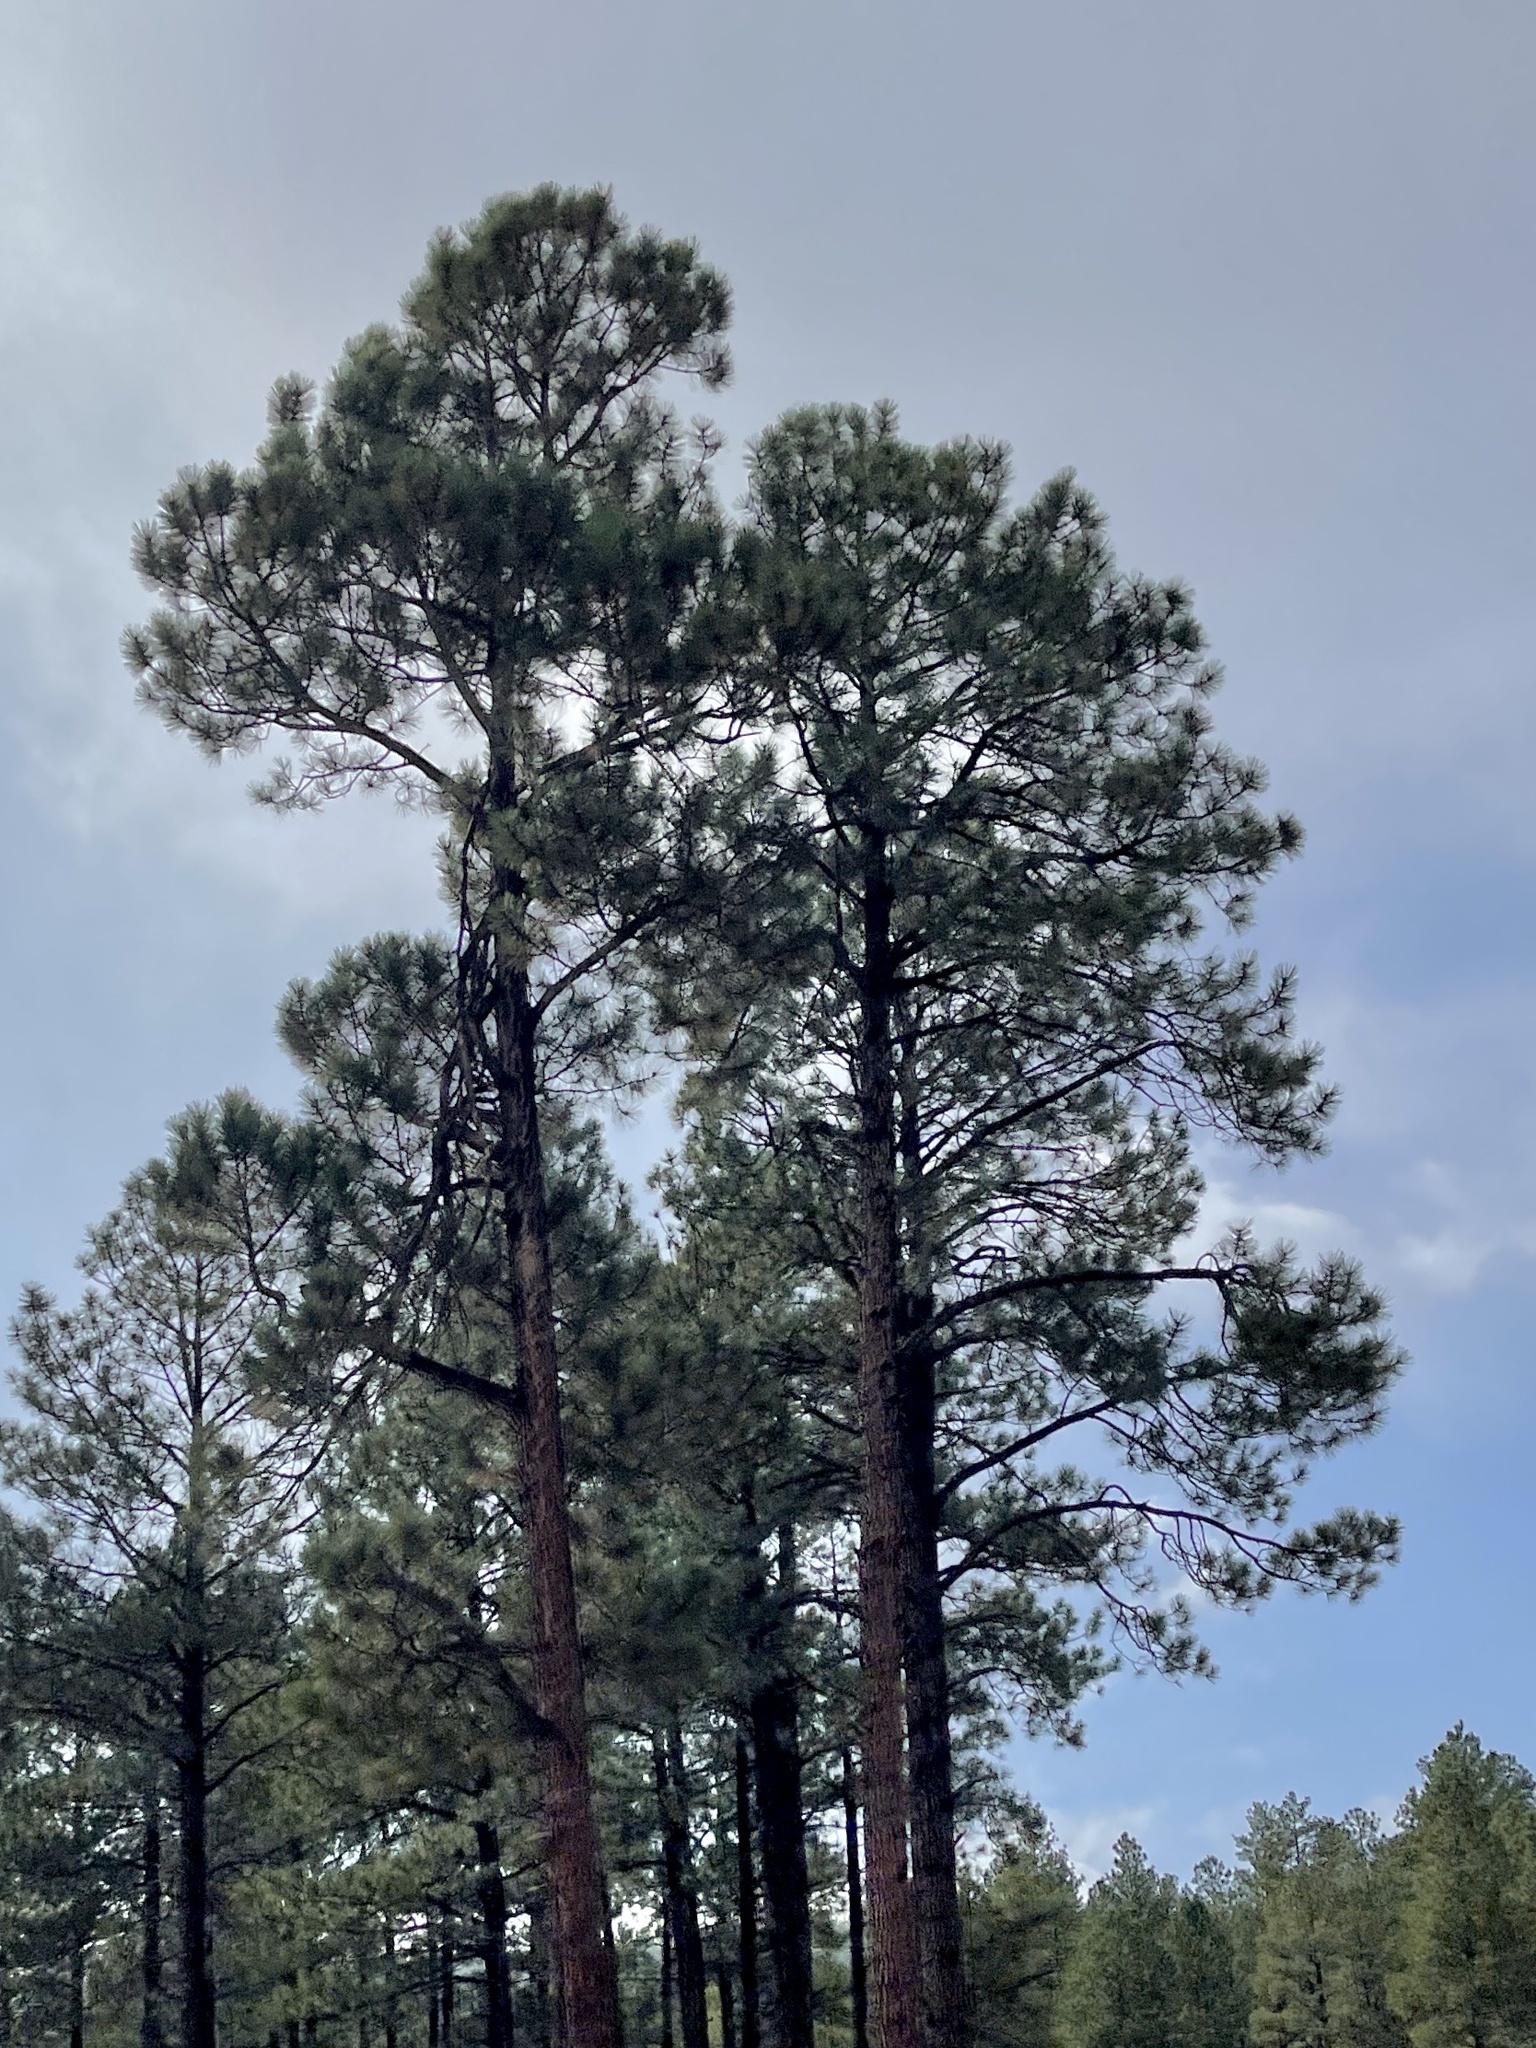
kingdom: Plantae
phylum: Tracheophyta
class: Pinopsida
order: Pinales
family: Pinaceae
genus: Pinus
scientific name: Pinus ponderosa
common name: Western yellow-pine
